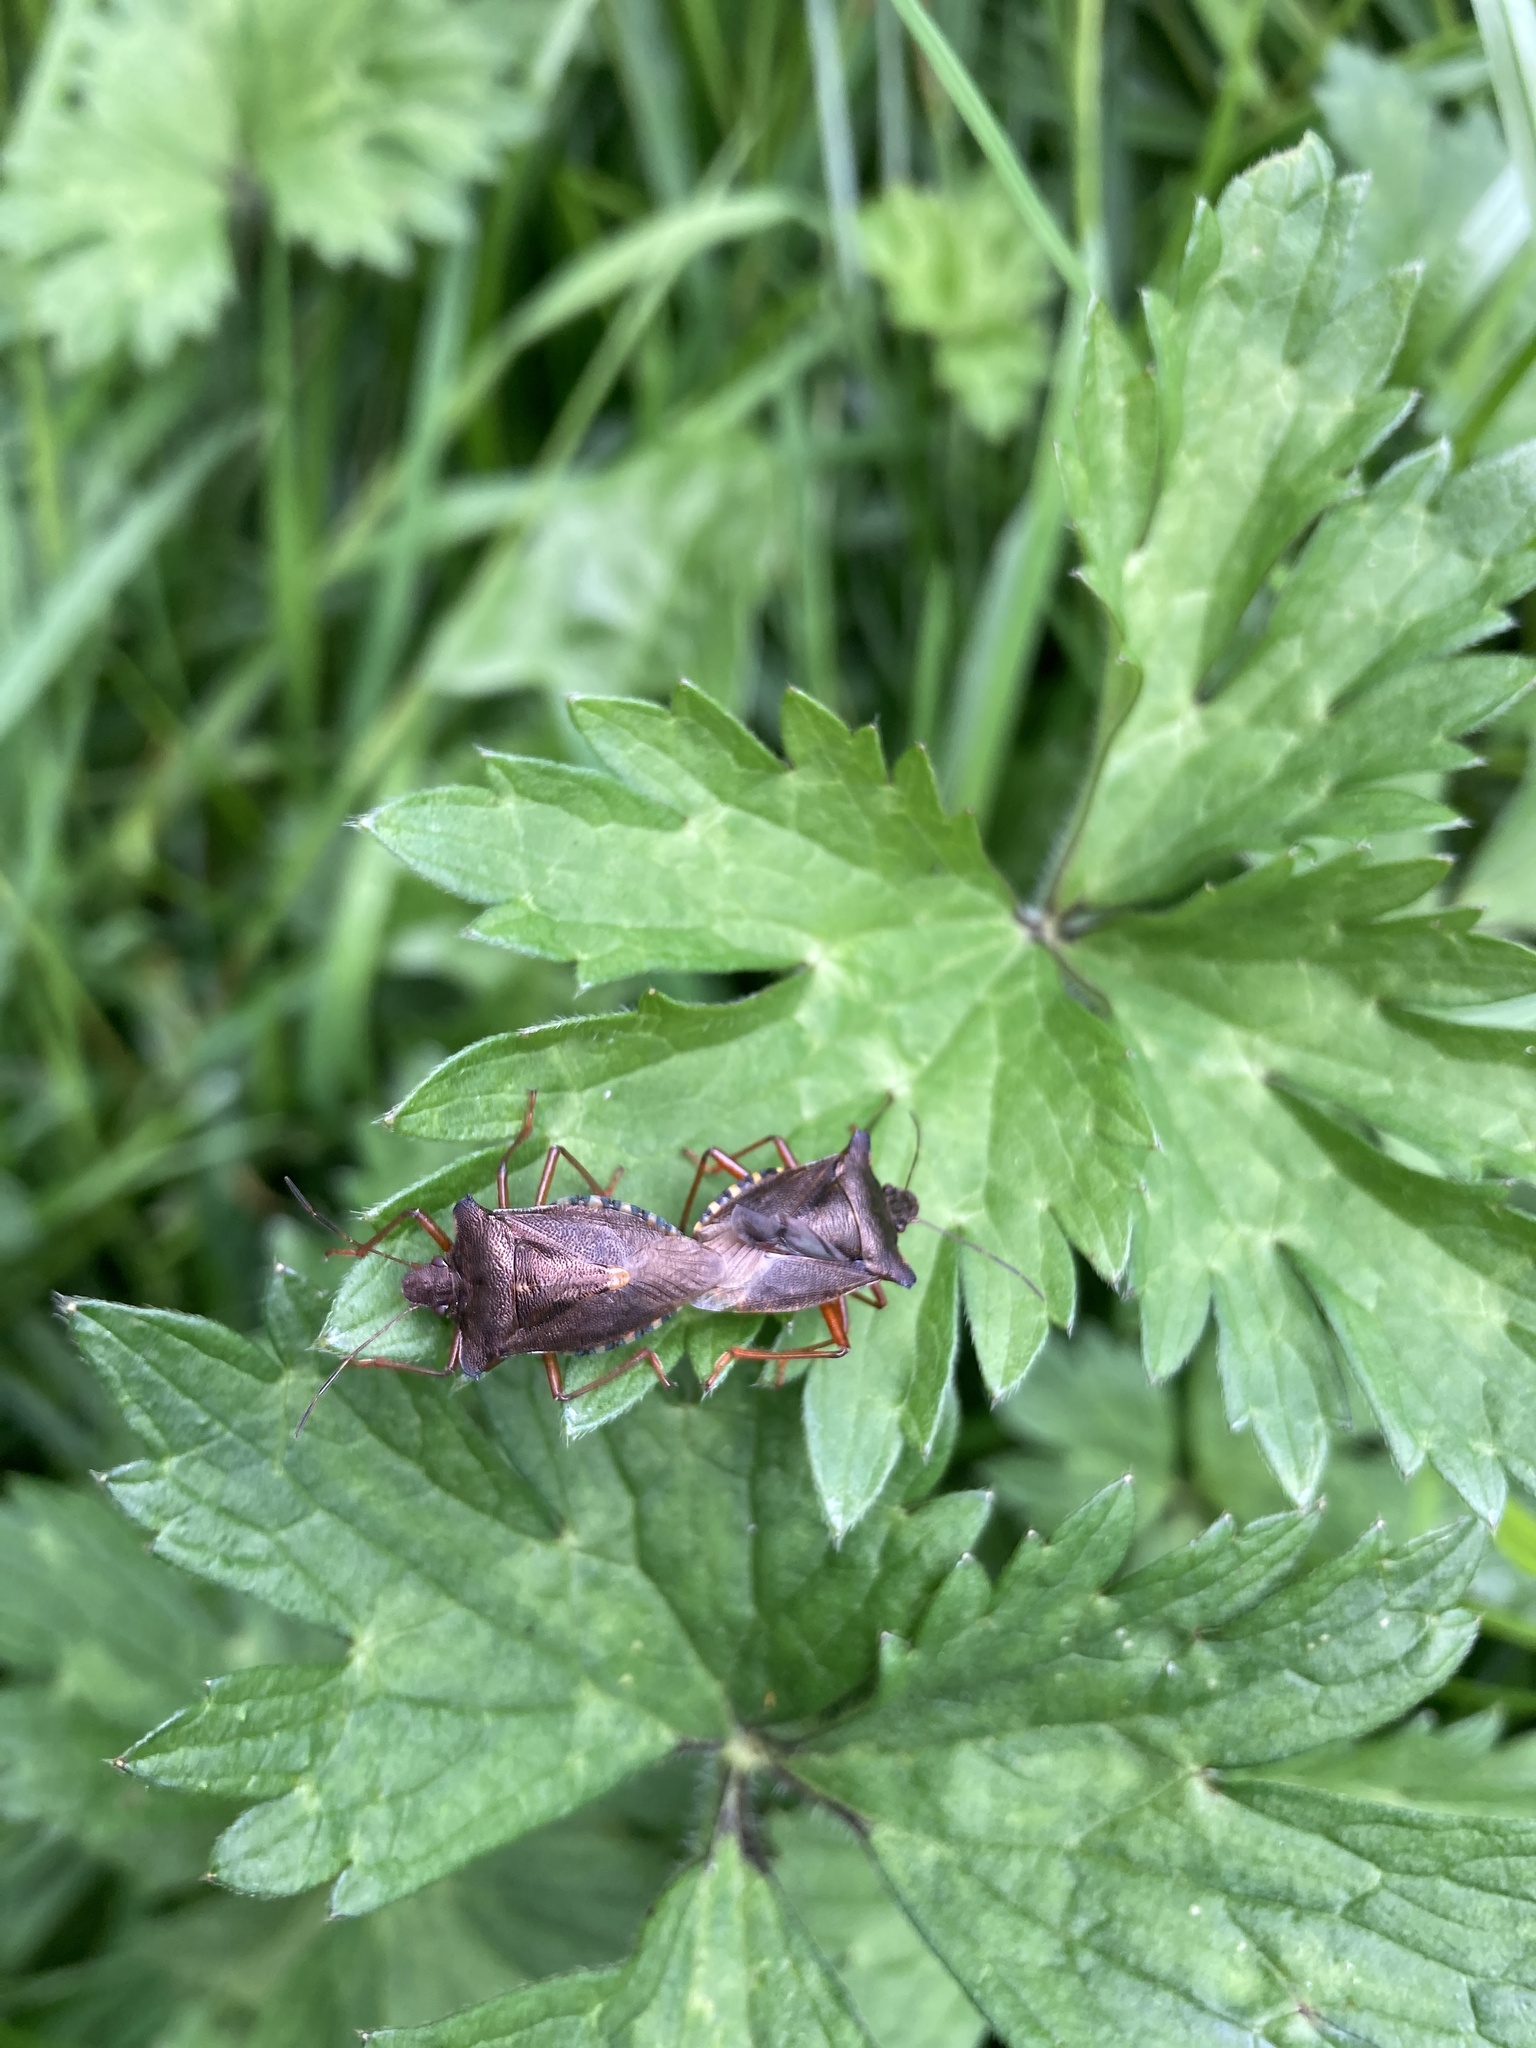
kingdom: Animalia
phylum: Arthropoda
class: Insecta
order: Hemiptera
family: Pentatomidae
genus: Pentatoma
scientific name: Pentatoma rufipes
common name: Forest bug
